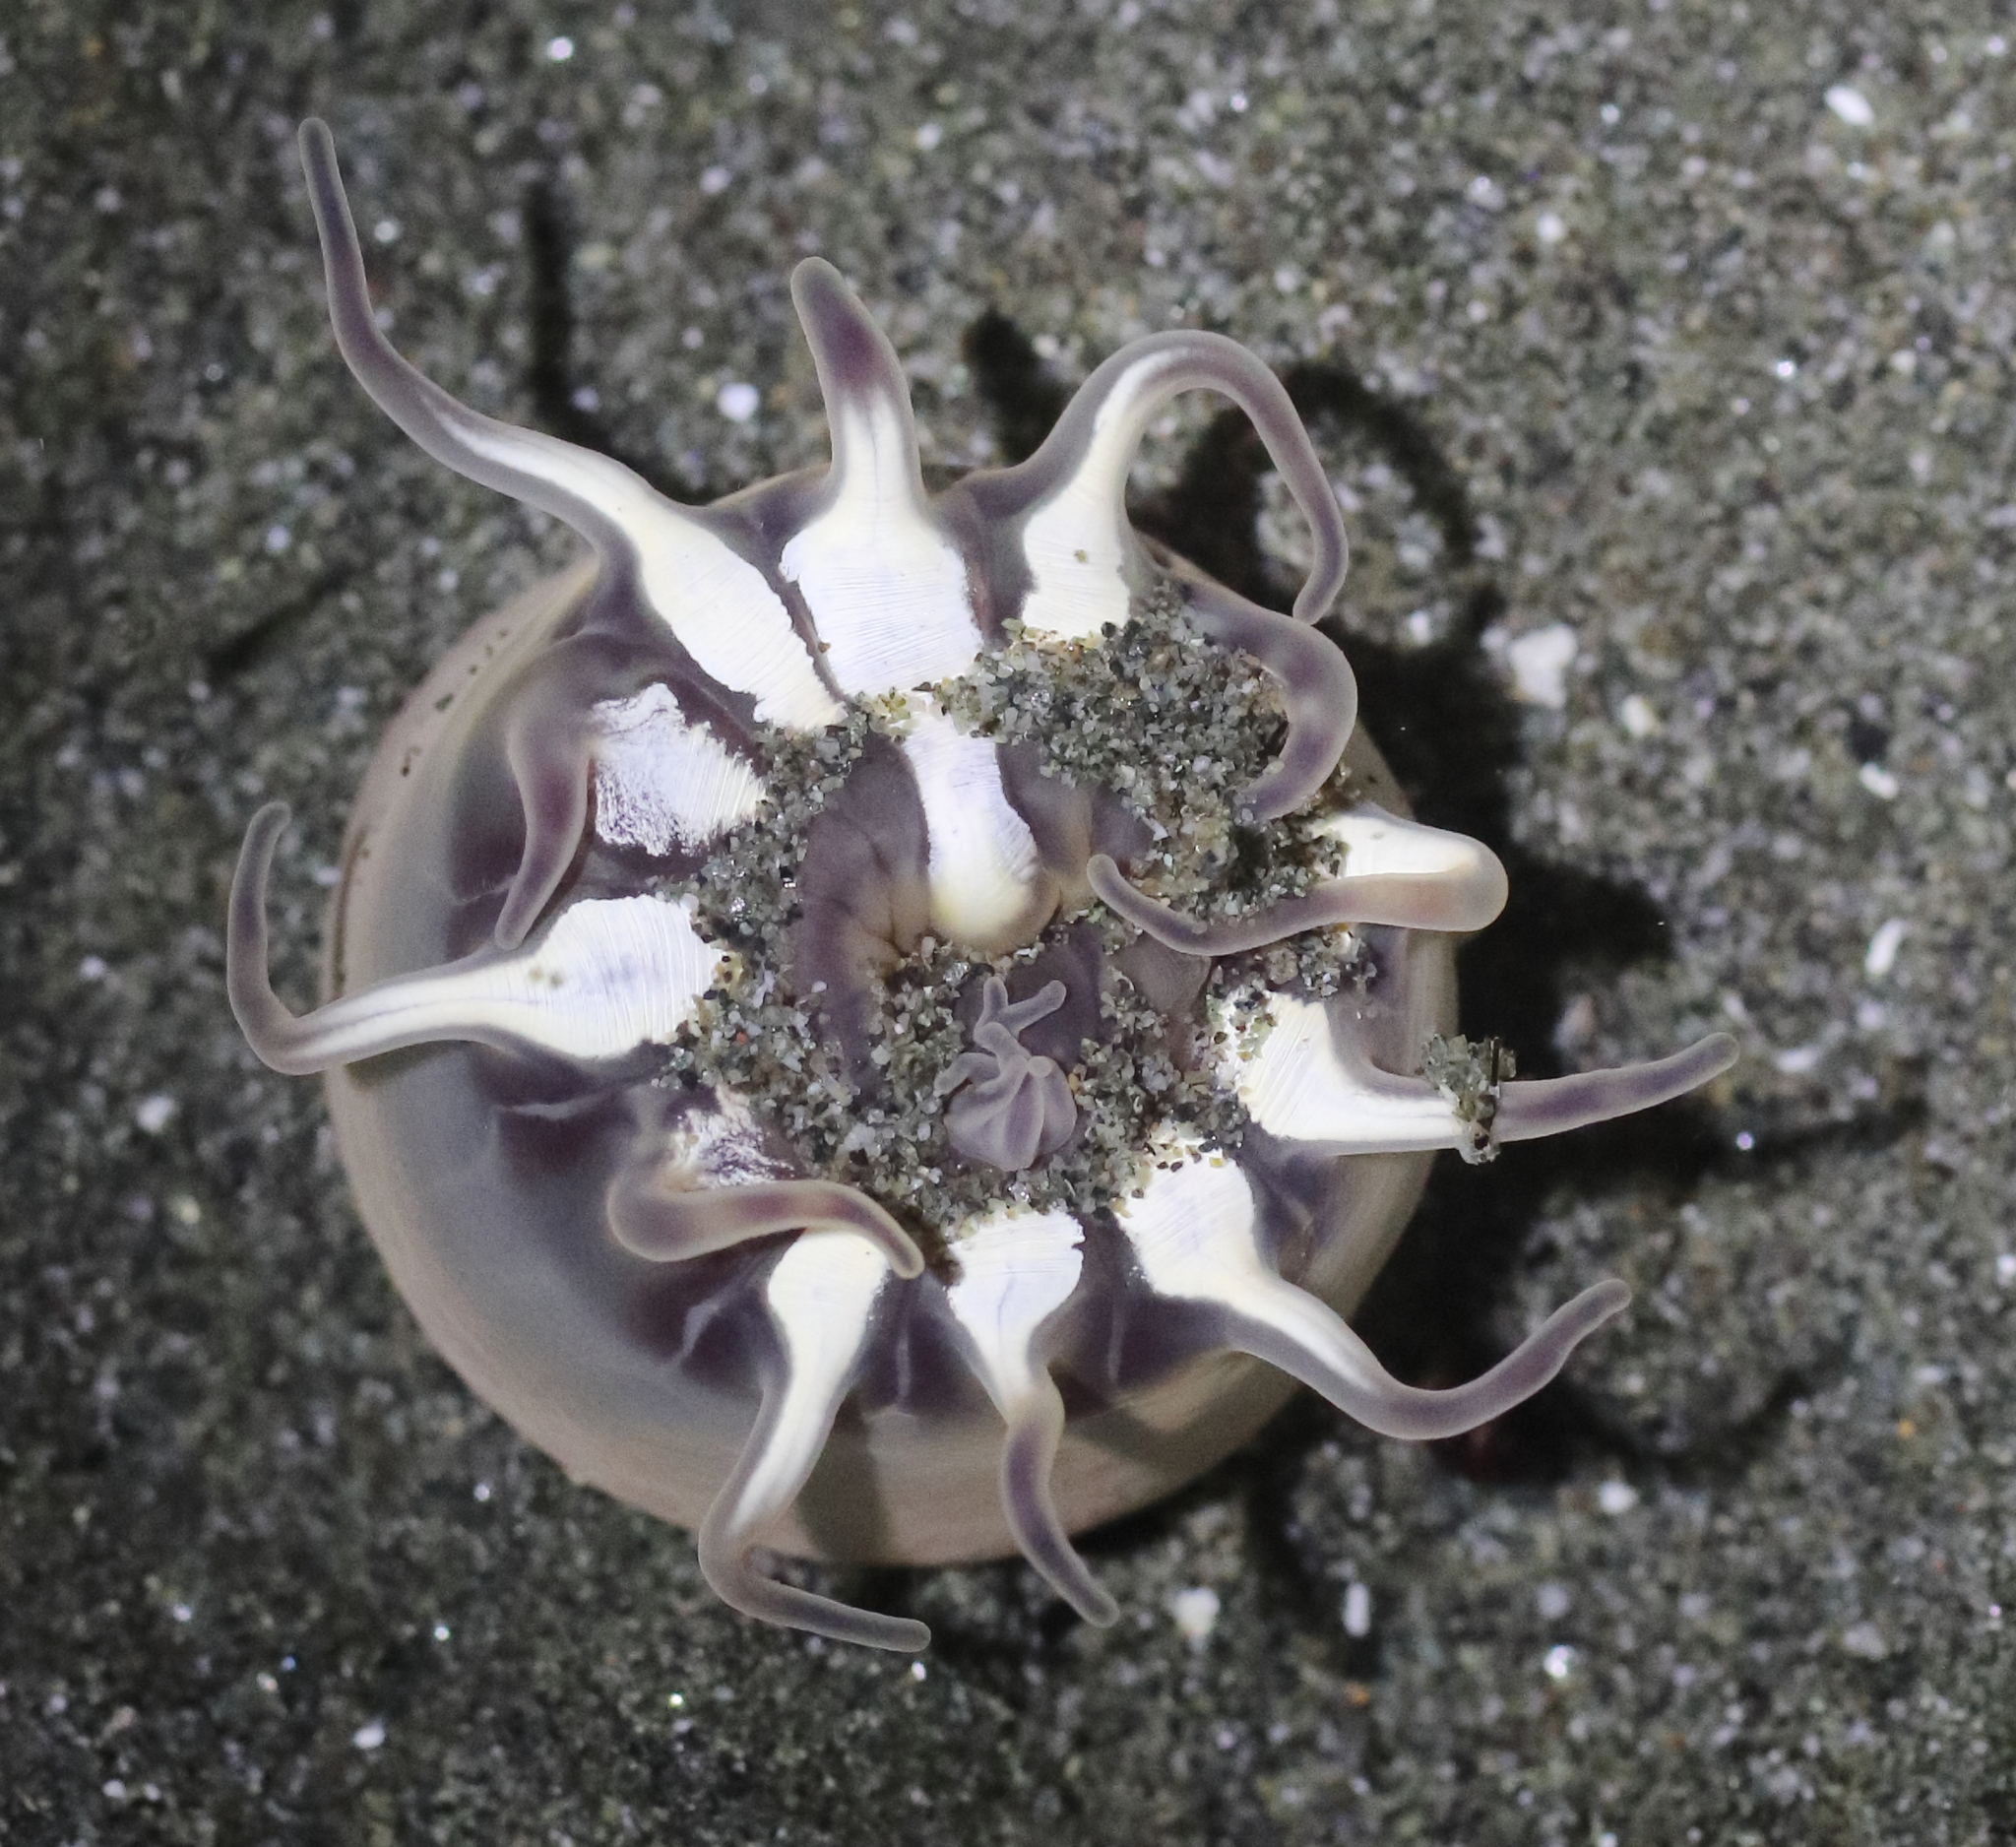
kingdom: Animalia
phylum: Cnidaria
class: Anthozoa
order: Actiniaria
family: Peachiidae
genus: Peachia
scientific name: Peachia quinquecapitata
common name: Twelve-tentacled parasitic anemone
